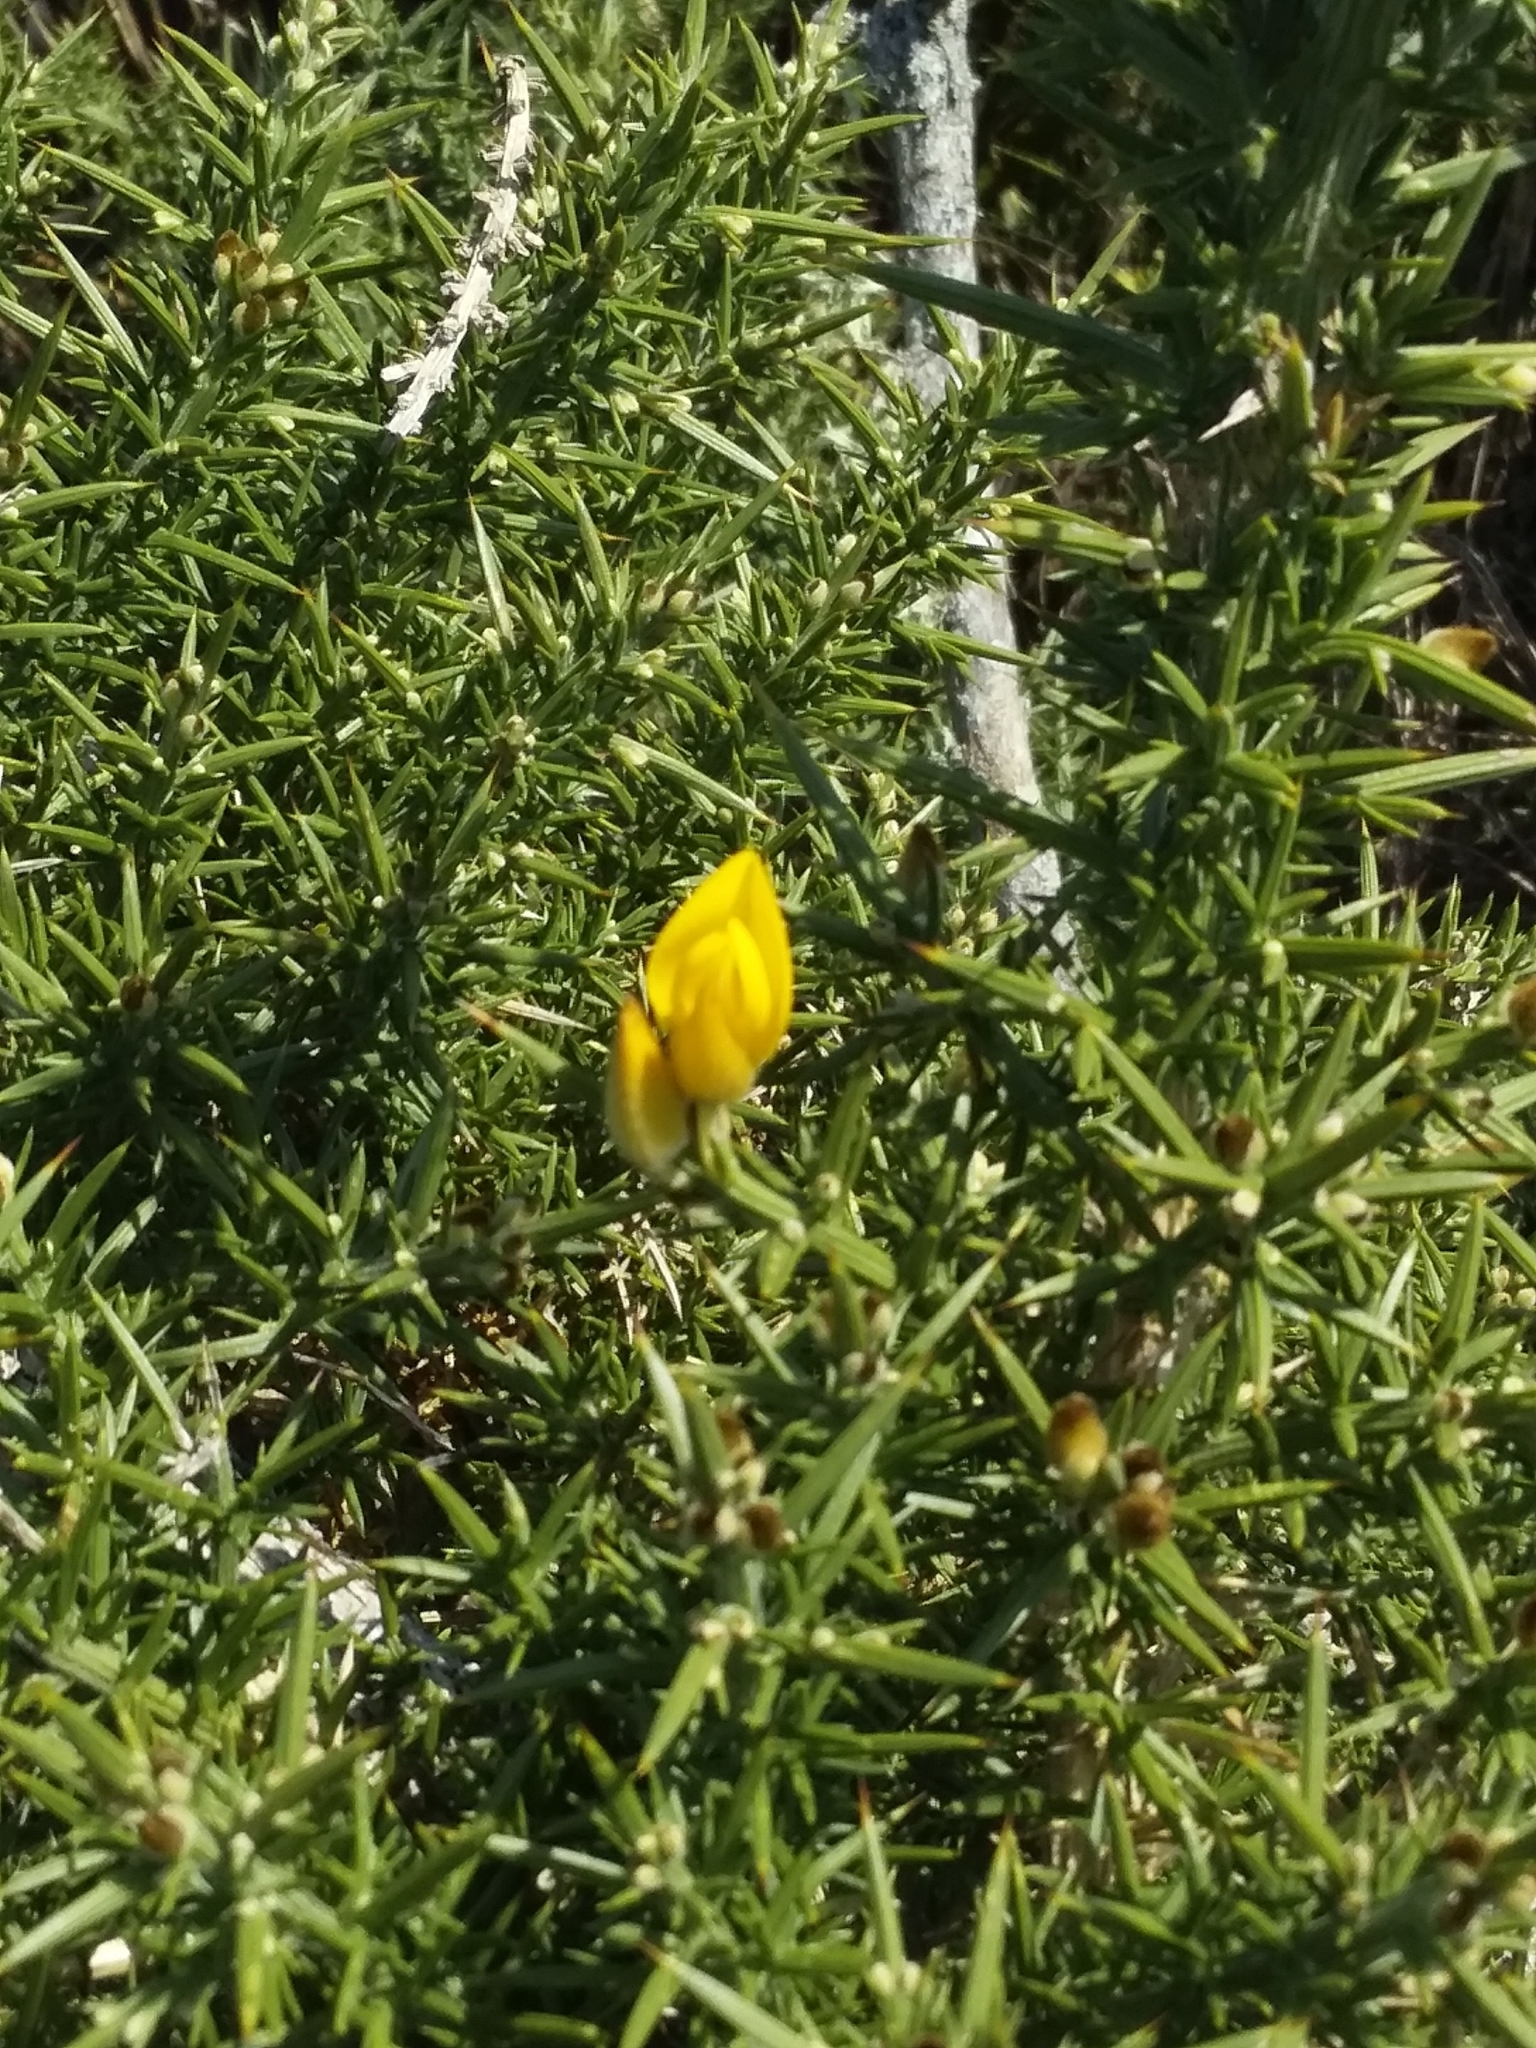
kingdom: Plantae
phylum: Tracheophyta
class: Magnoliopsida
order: Fabales
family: Fabaceae
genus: Ulex
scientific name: Ulex europaeus
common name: Common gorse
